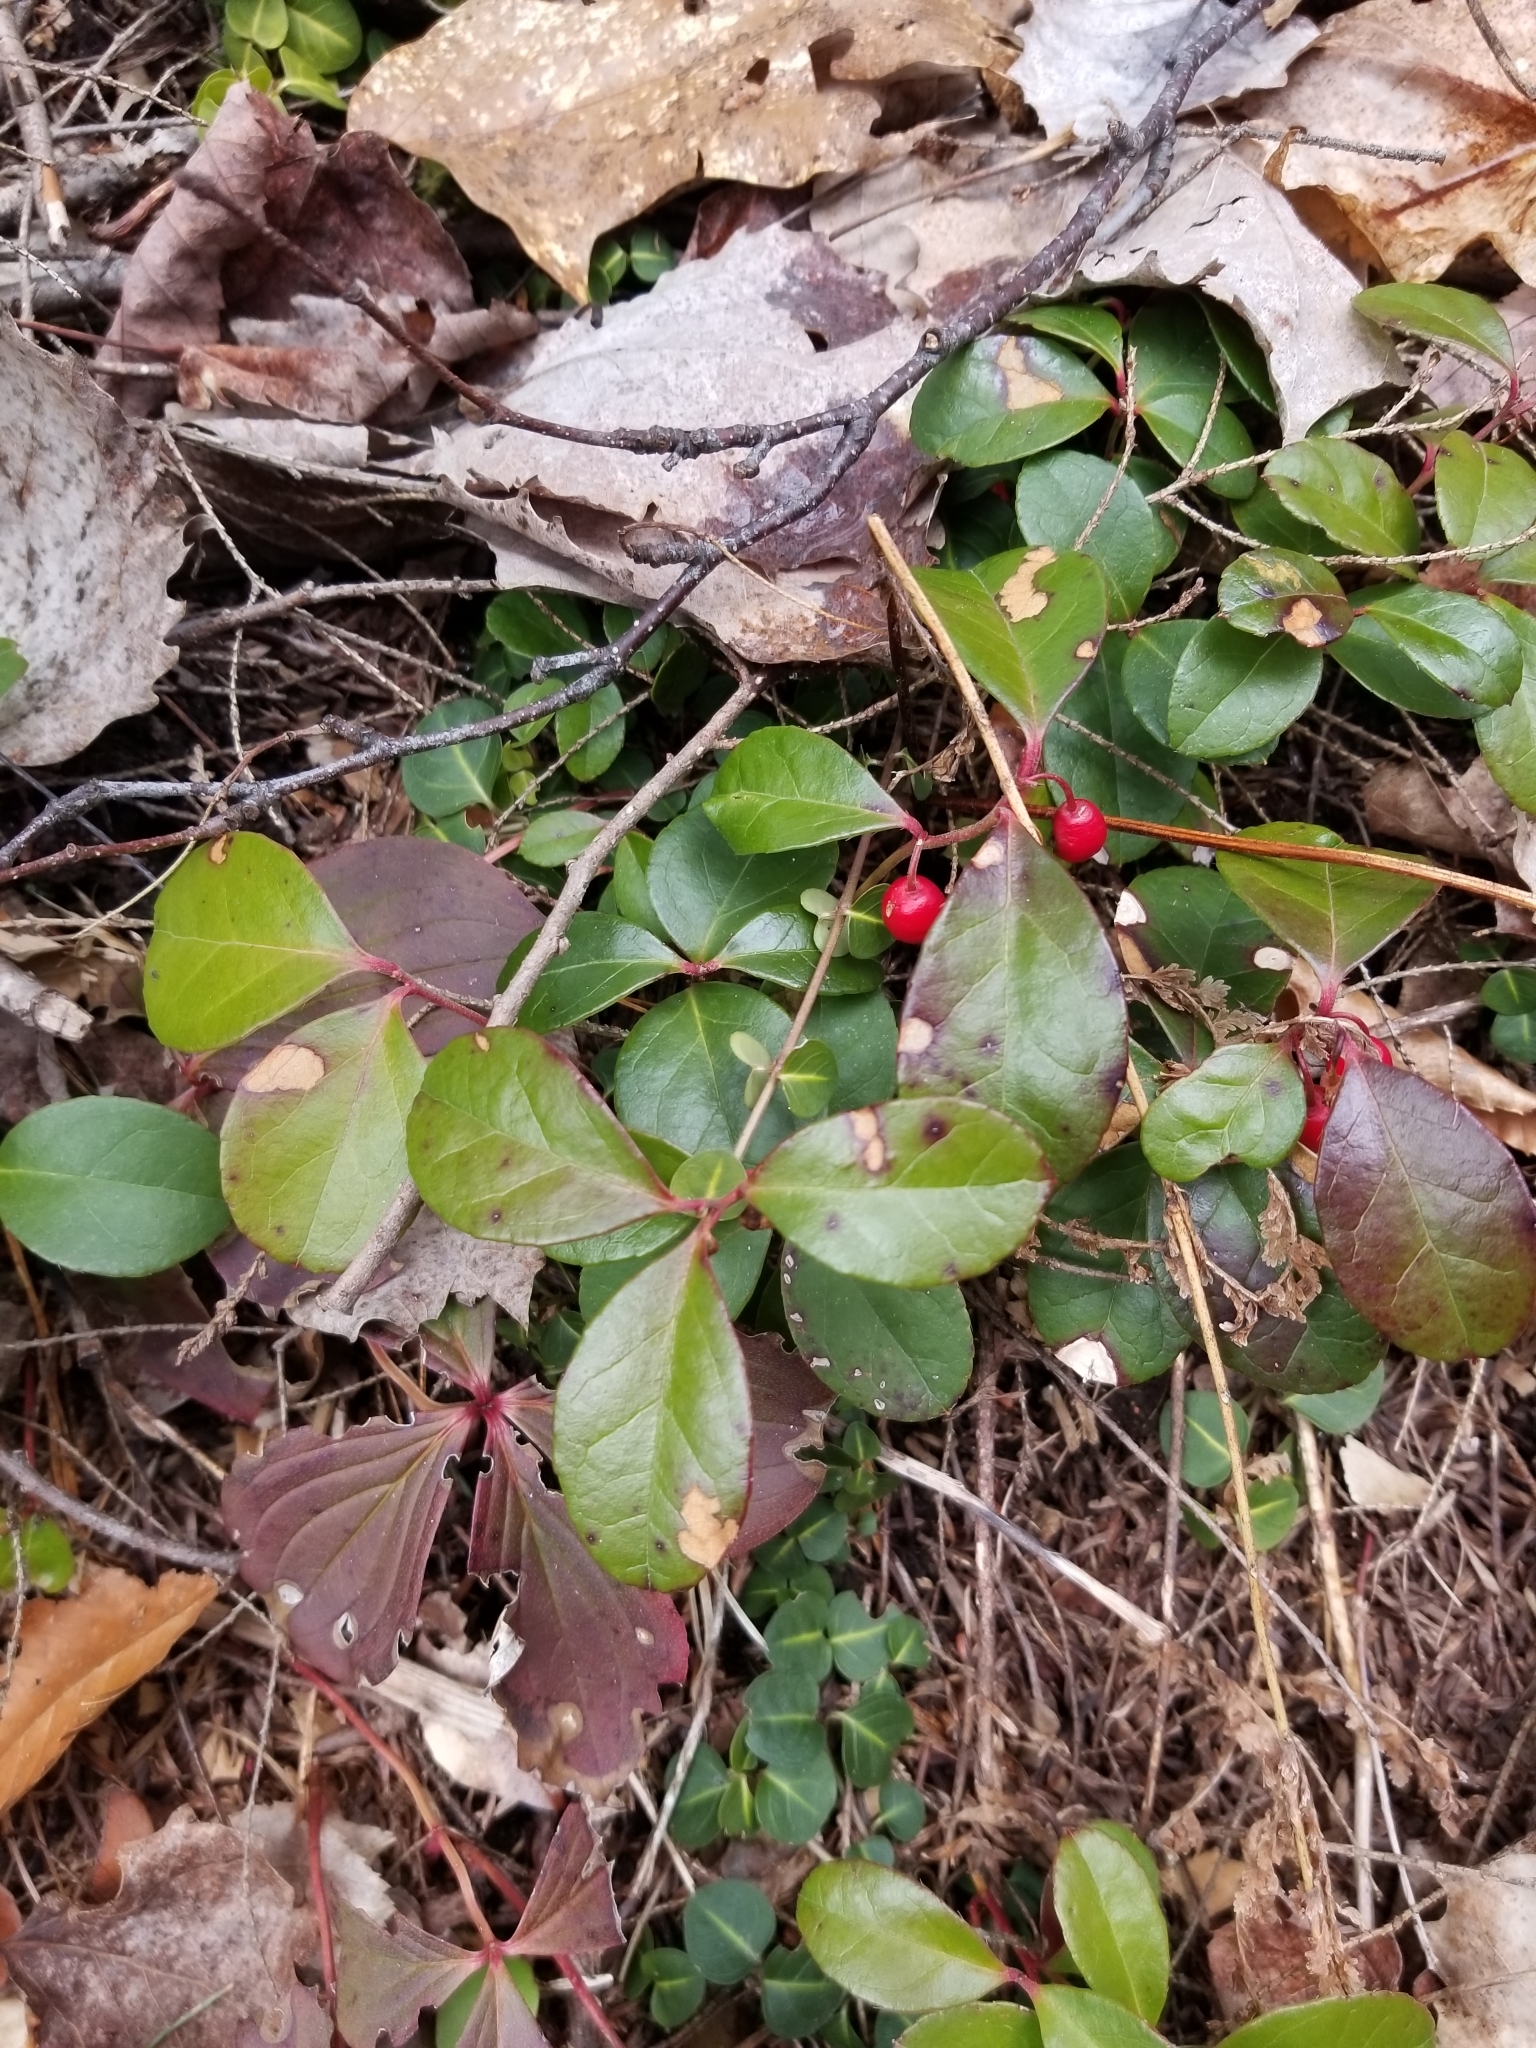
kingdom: Plantae
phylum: Tracheophyta
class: Magnoliopsida
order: Ericales
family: Ericaceae
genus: Gaultheria
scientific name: Gaultheria procumbens
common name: Checkerberry
